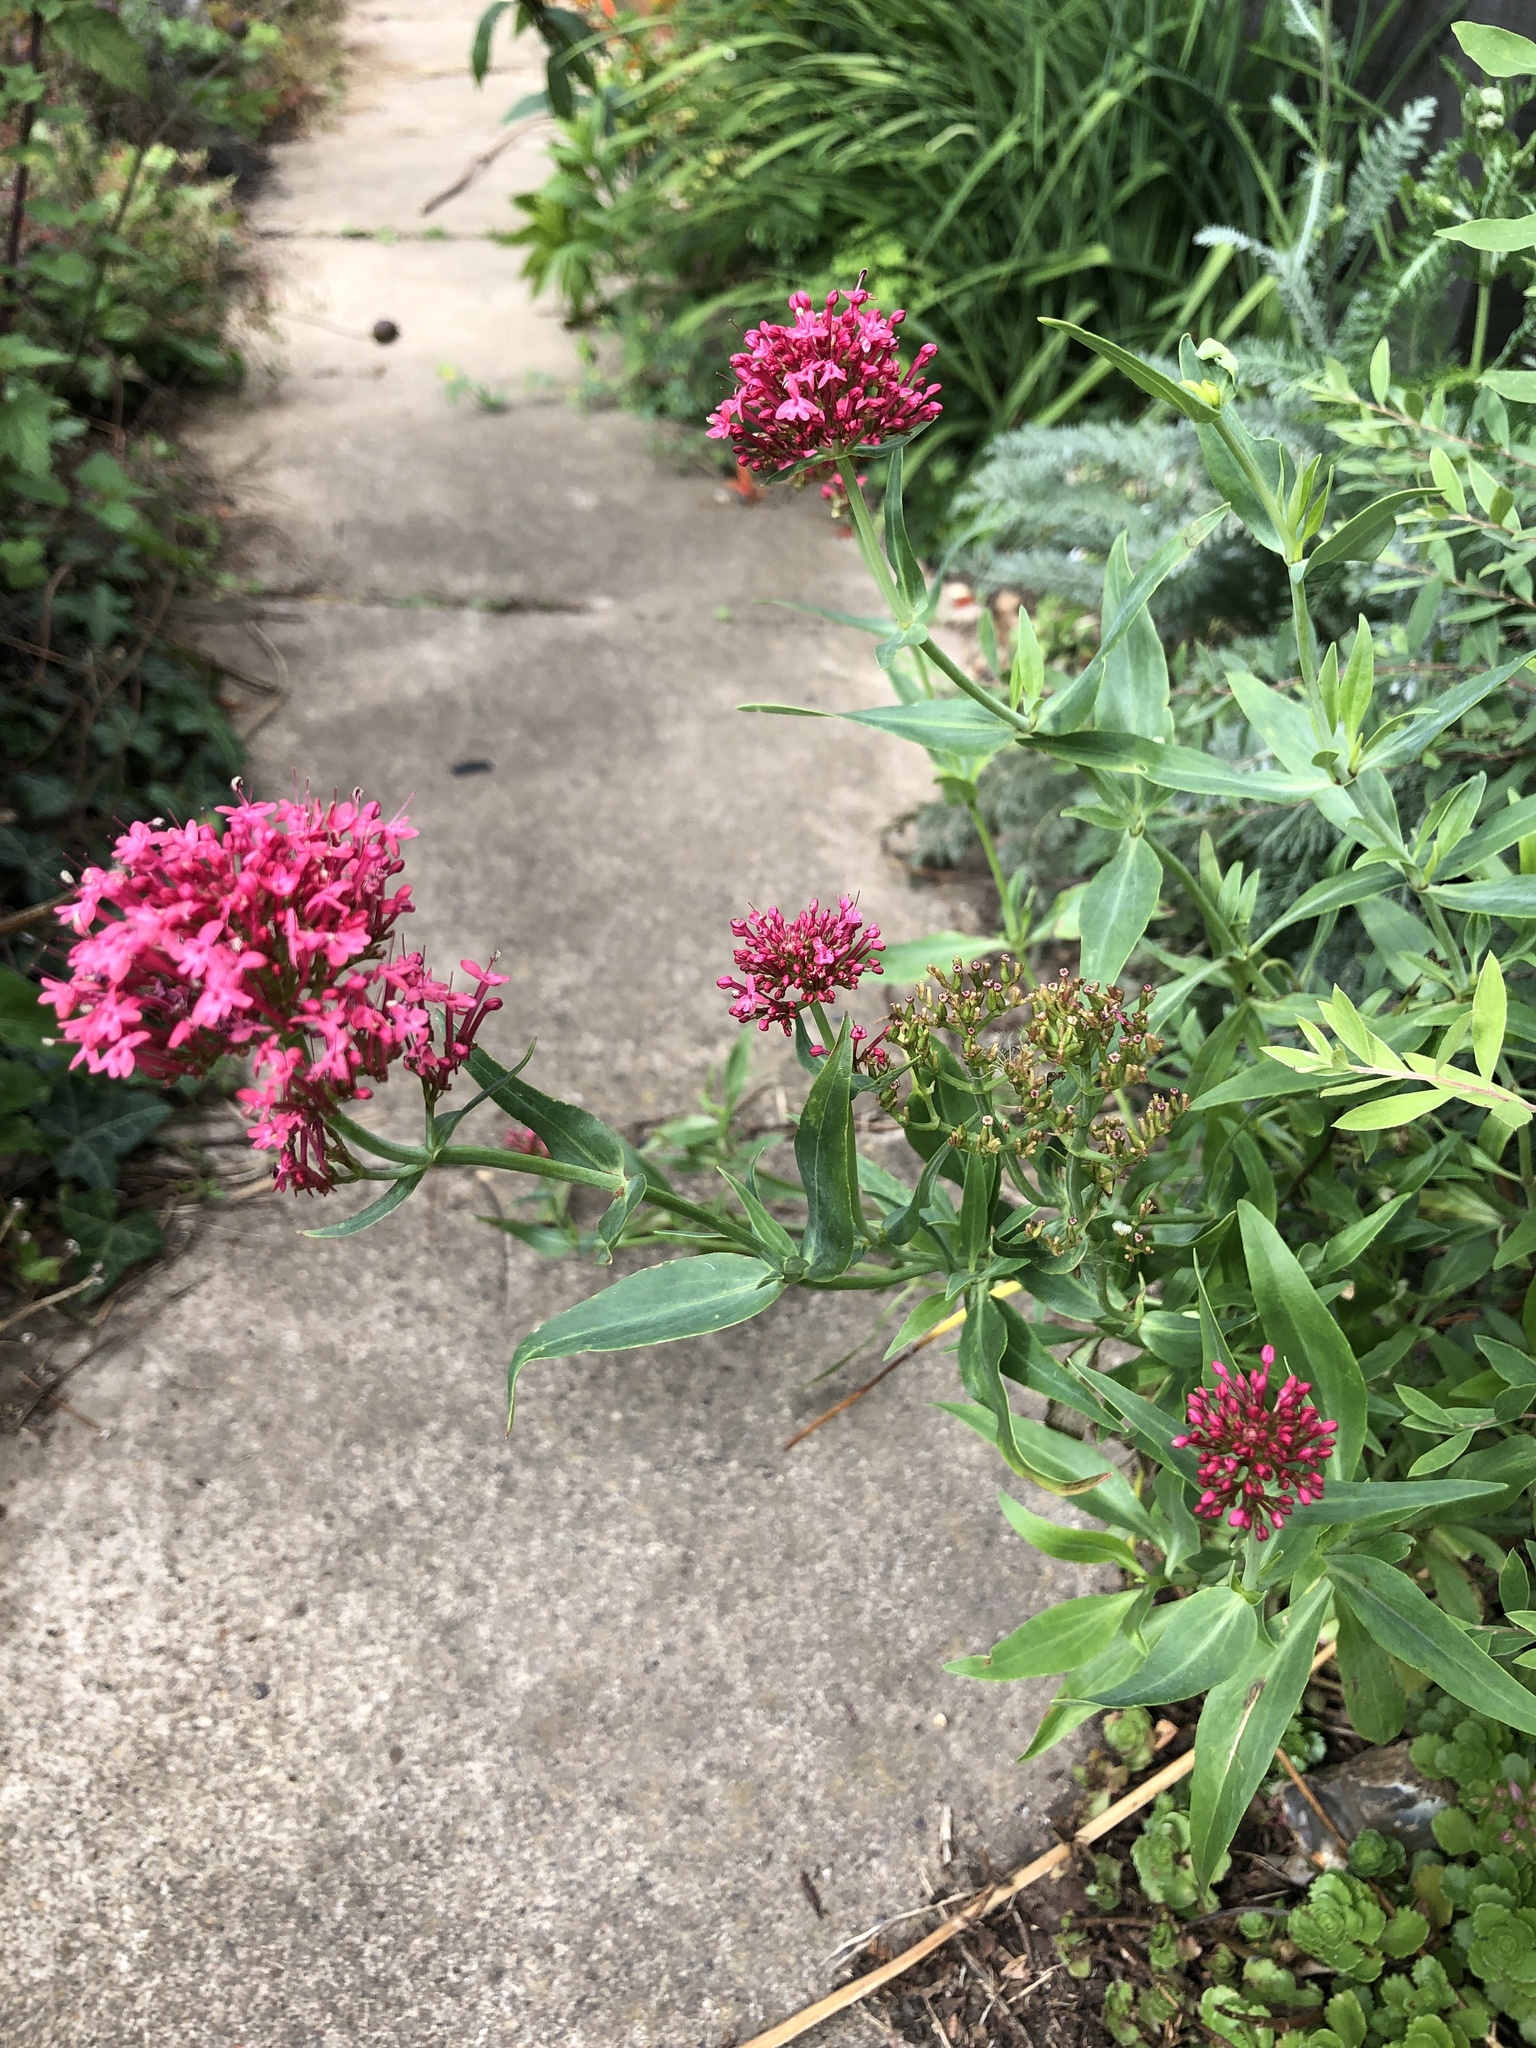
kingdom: Plantae
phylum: Tracheophyta
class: Magnoliopsida
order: Dipsacales
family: Caprifoliaceae
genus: Centranthus
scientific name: Centranthus ruber
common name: Red valerian
